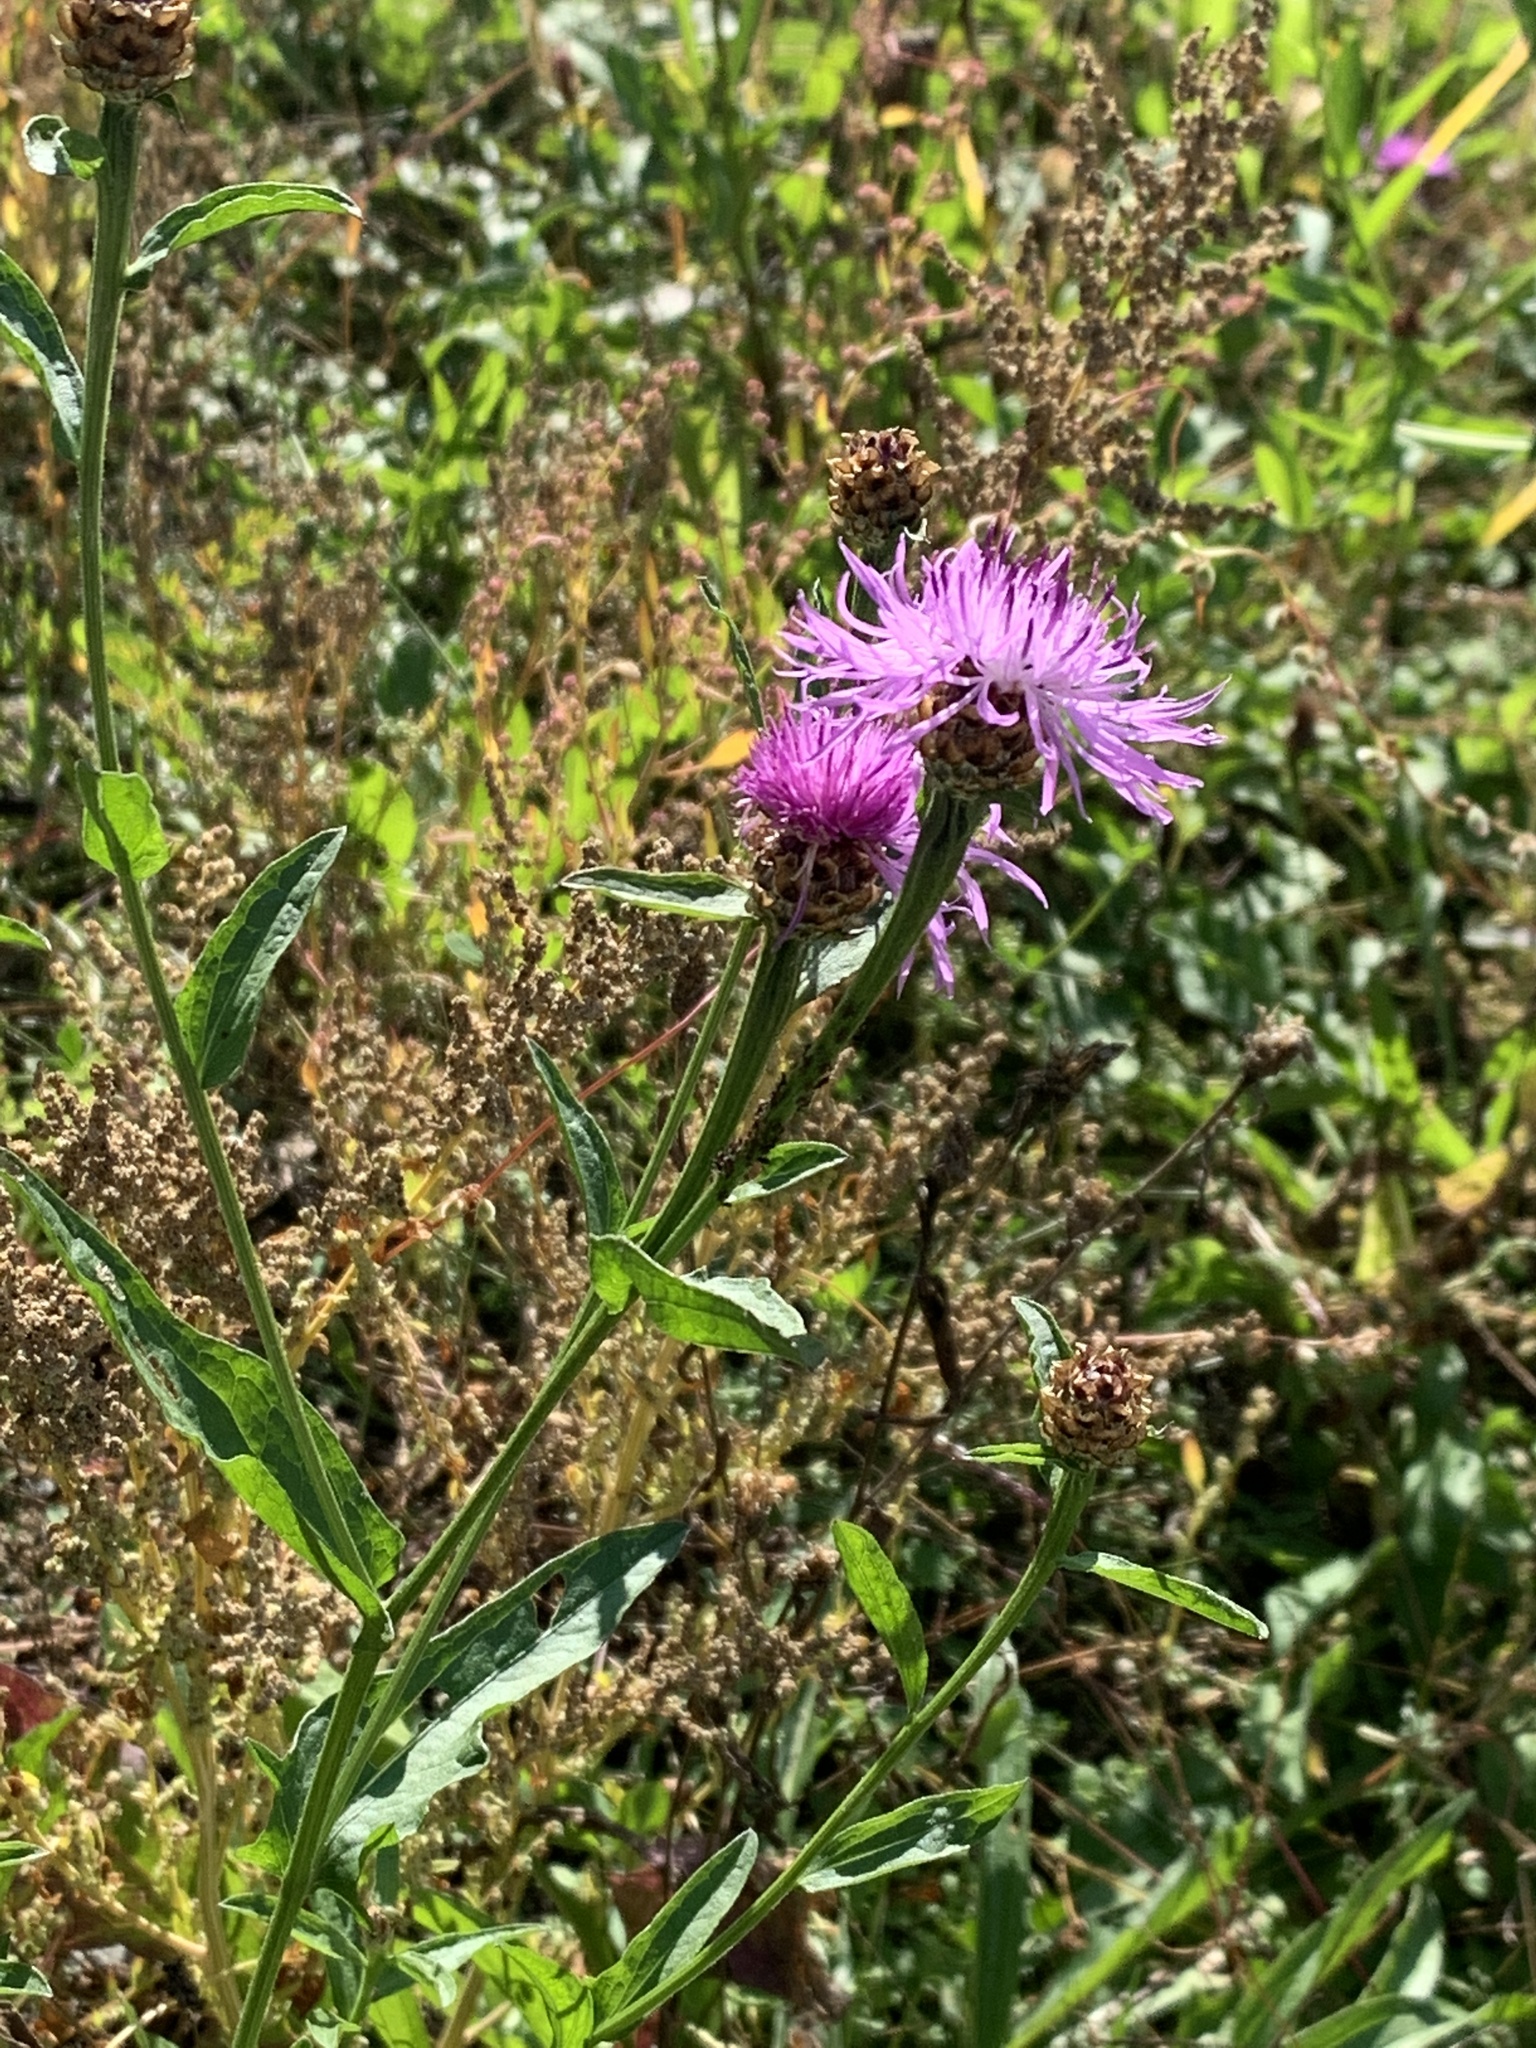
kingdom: Plantae
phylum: Tracheophyta
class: Magnoliopsida
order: Asterales
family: Asteraceae
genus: Centaurea
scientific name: Centaurea jacea
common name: Brown knapweed
